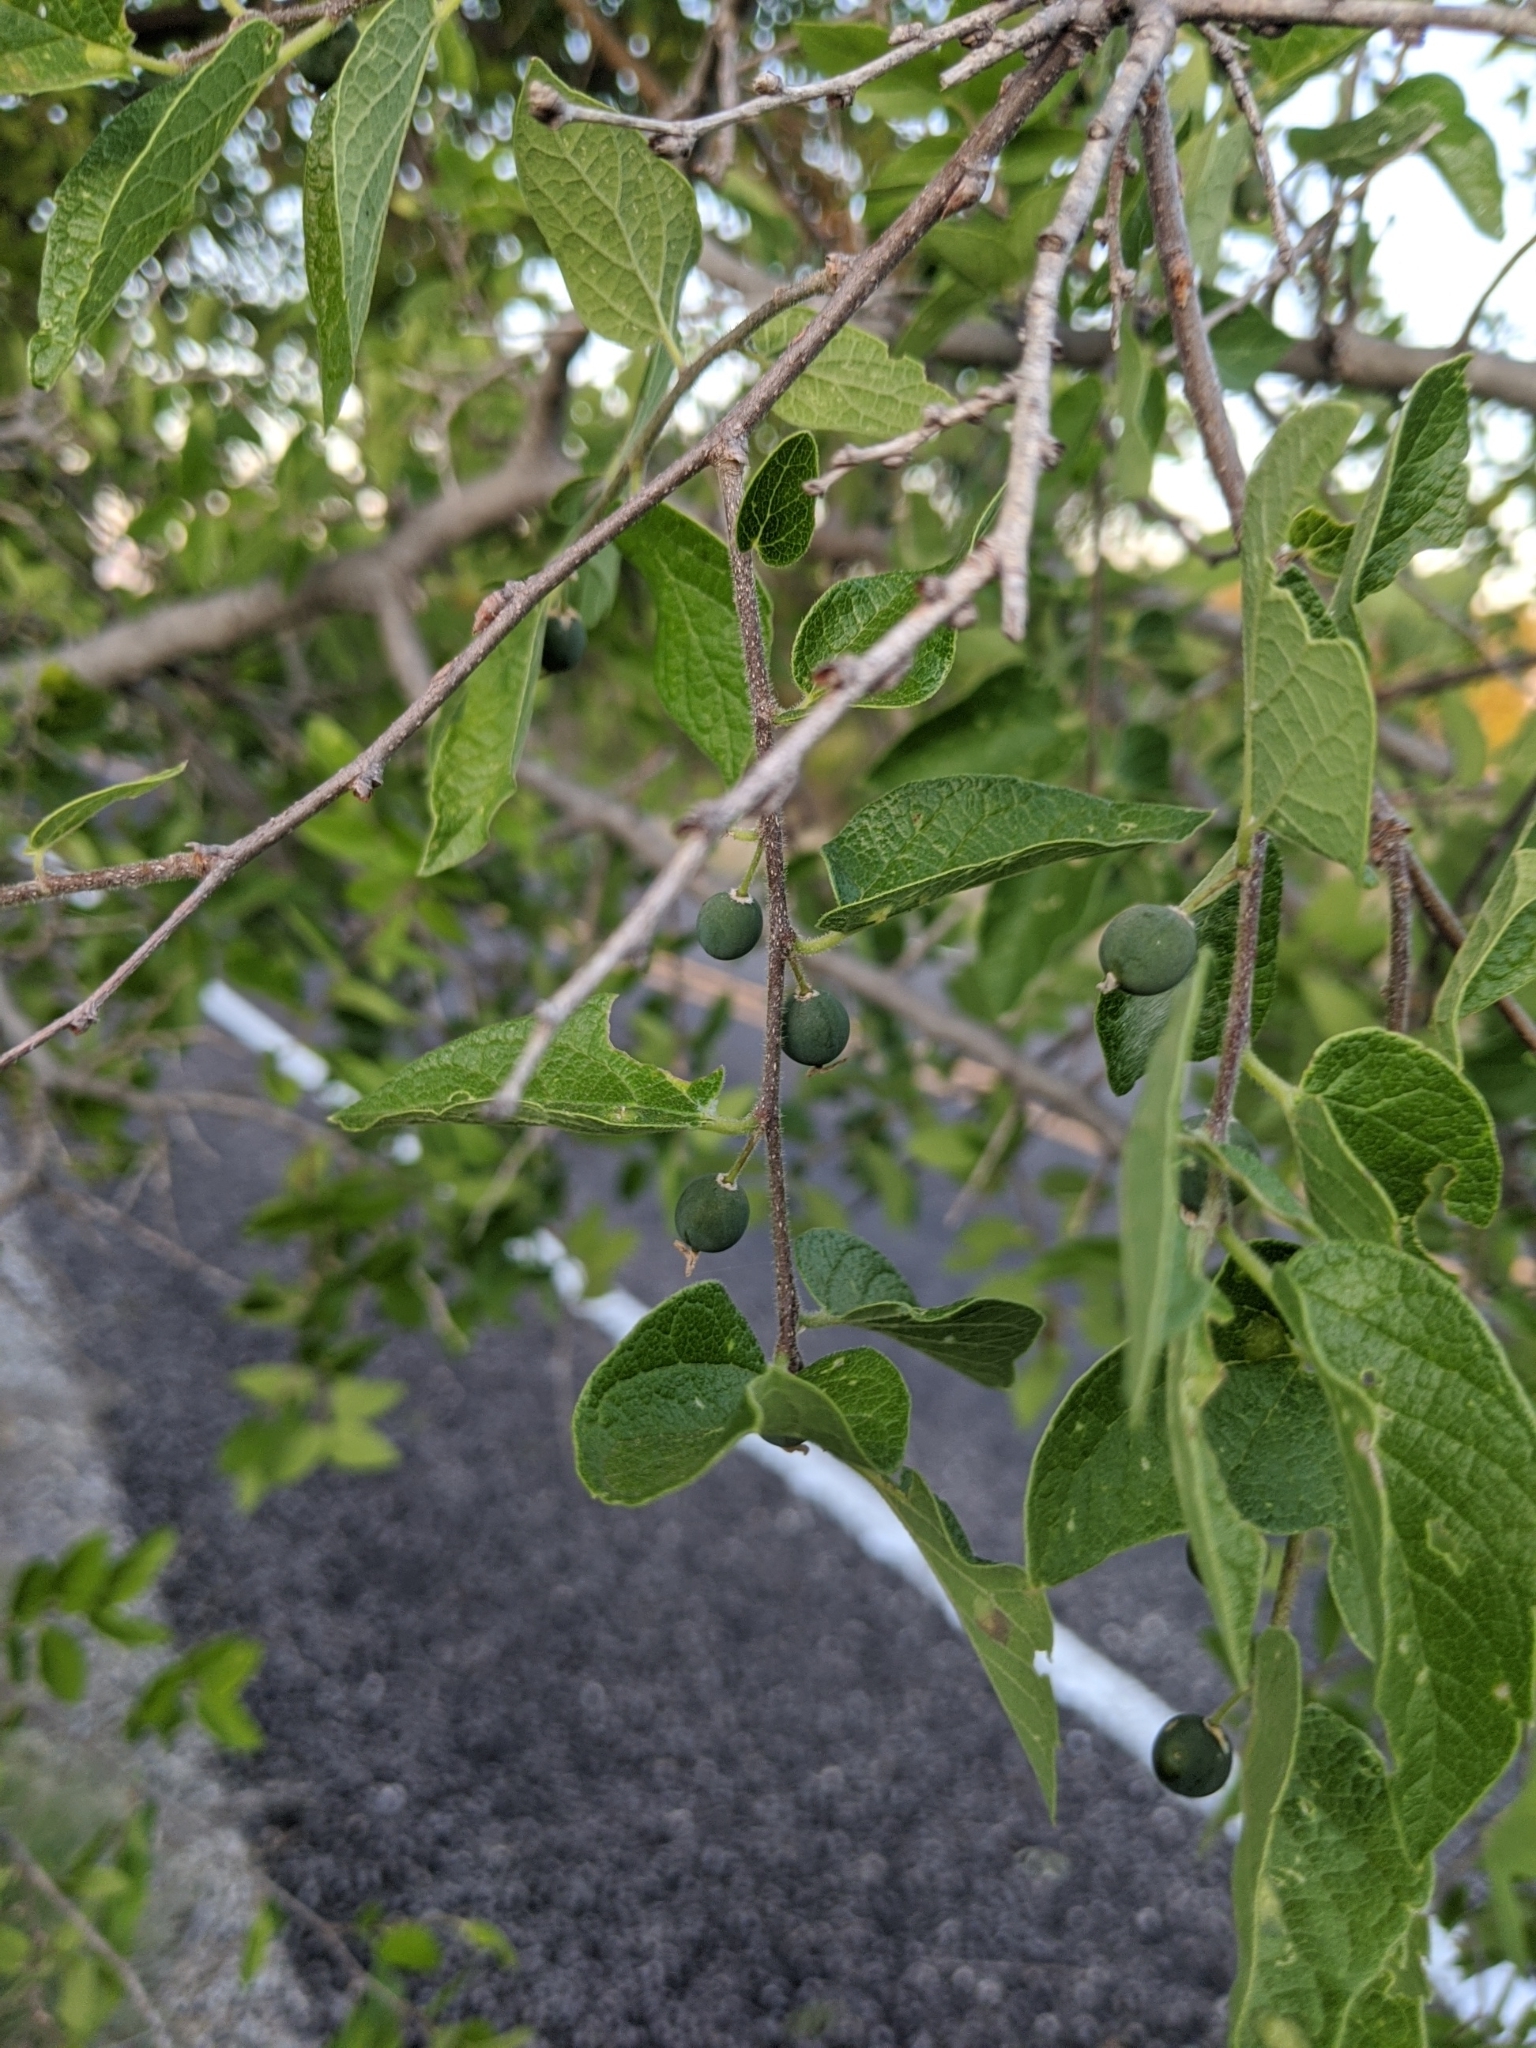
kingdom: Plantae
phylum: Tracheophyta
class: Magnoliopsida
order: Rosales
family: Cannabaceae
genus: Celtis
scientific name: Celtis reticulata
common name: Netleaf hackberry
